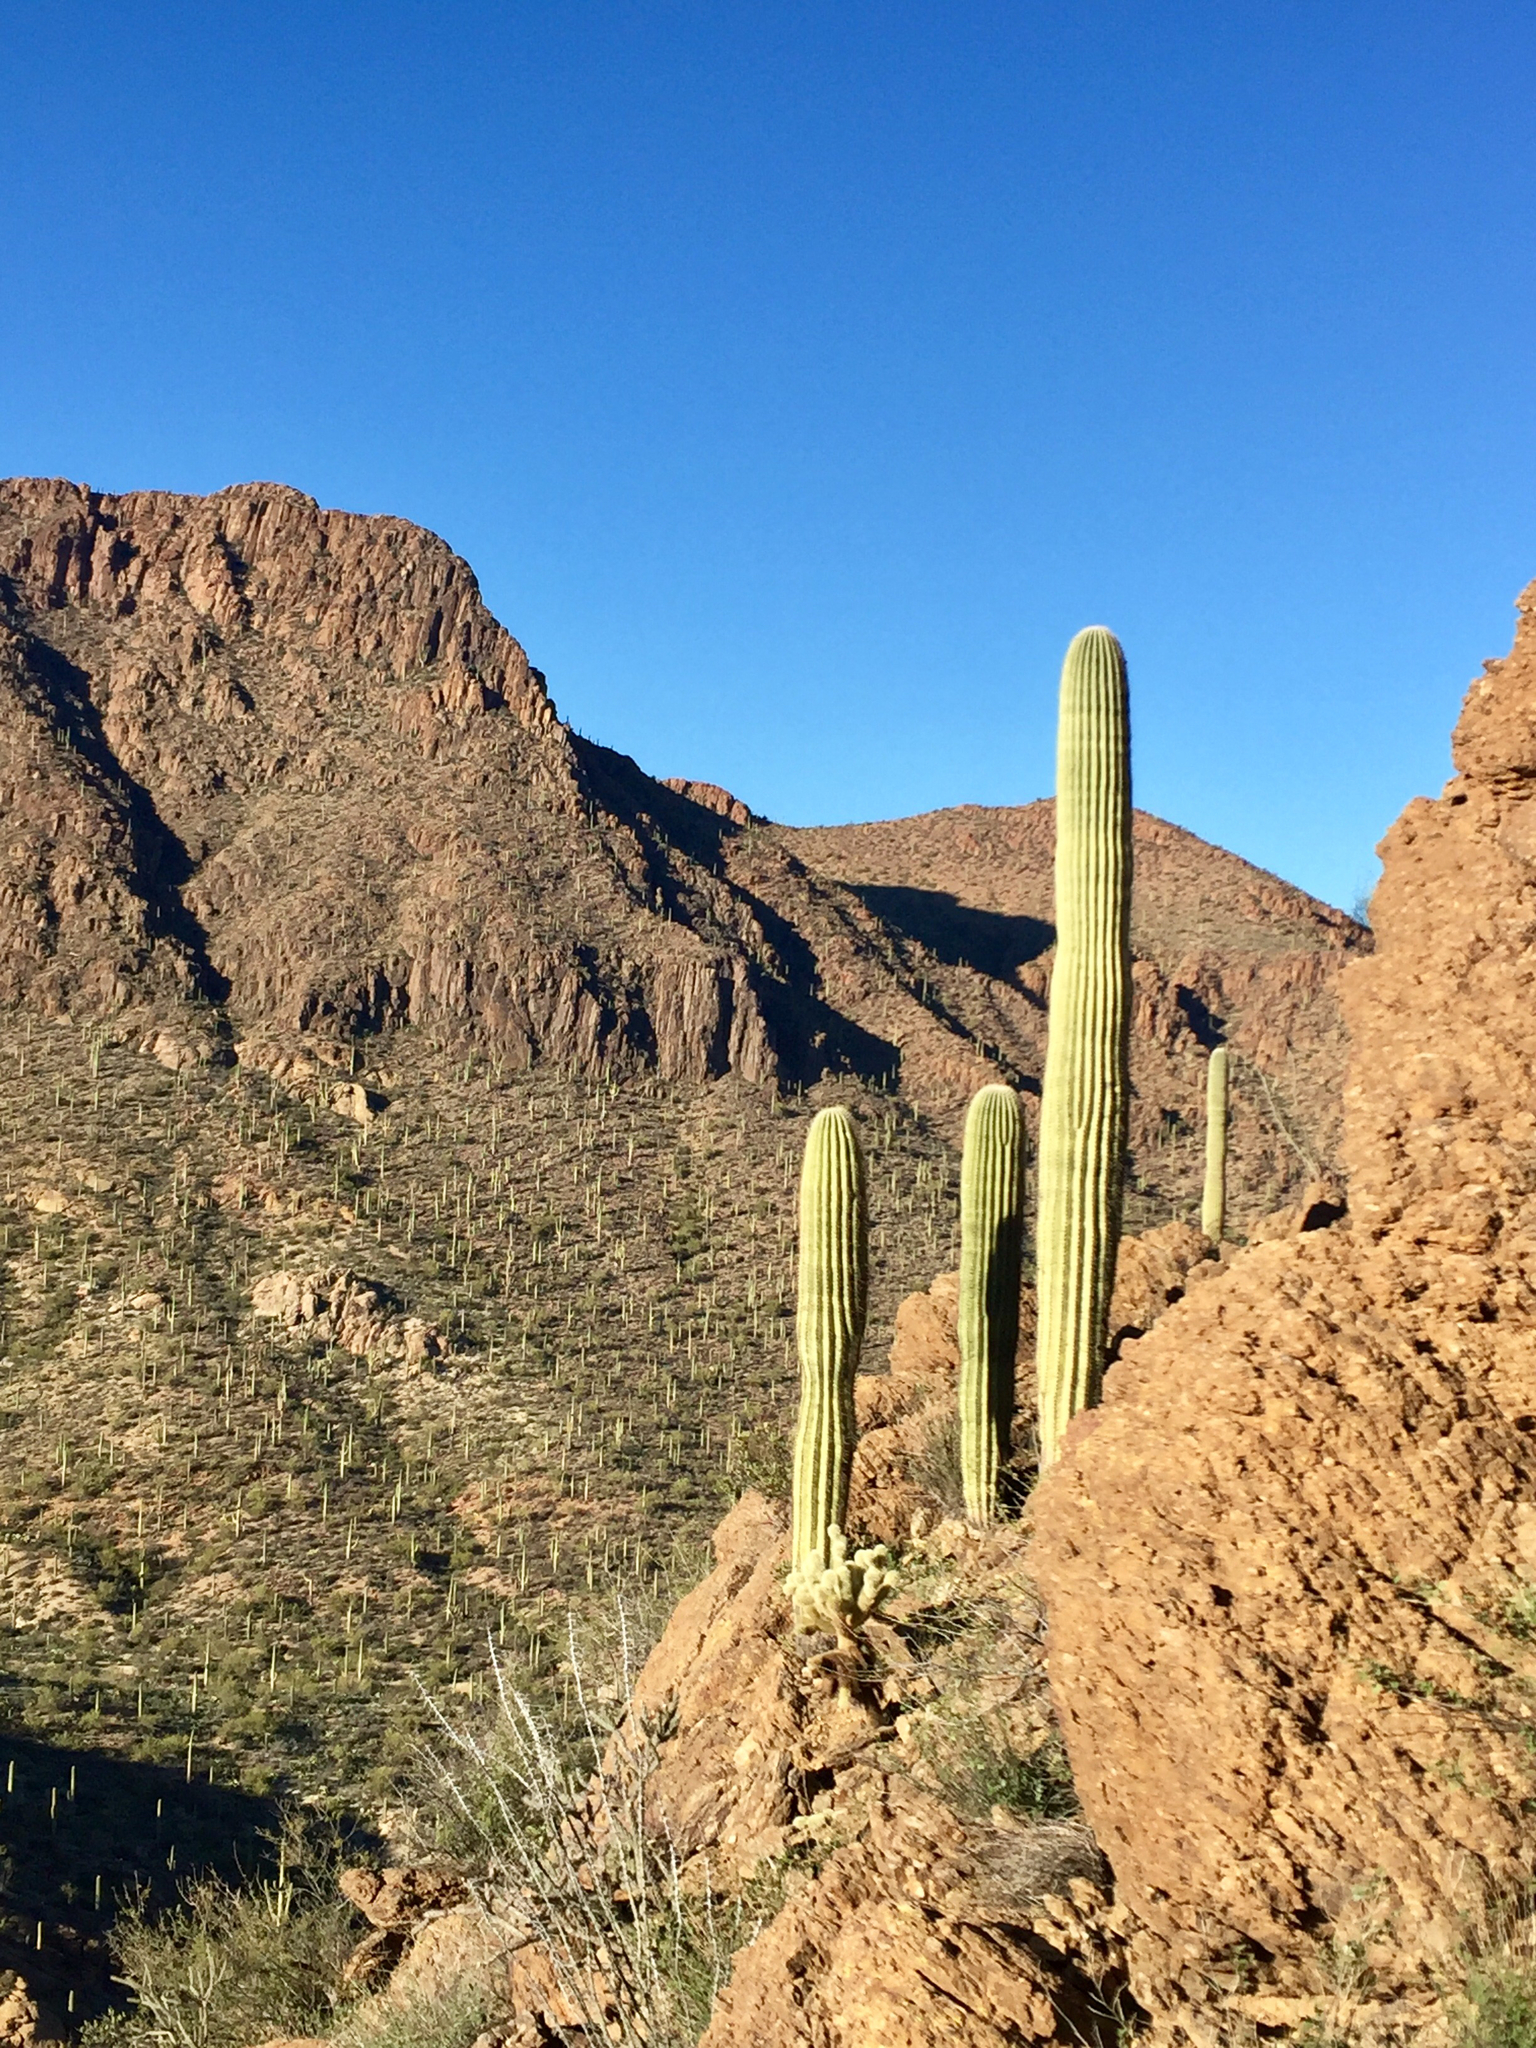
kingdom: Plantae
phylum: Tracheophyta
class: Magnoliopsida
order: Caryophyllales
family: Cactaceae
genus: Carnegiea
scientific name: Carnegiea gigantea
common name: Saguaro
